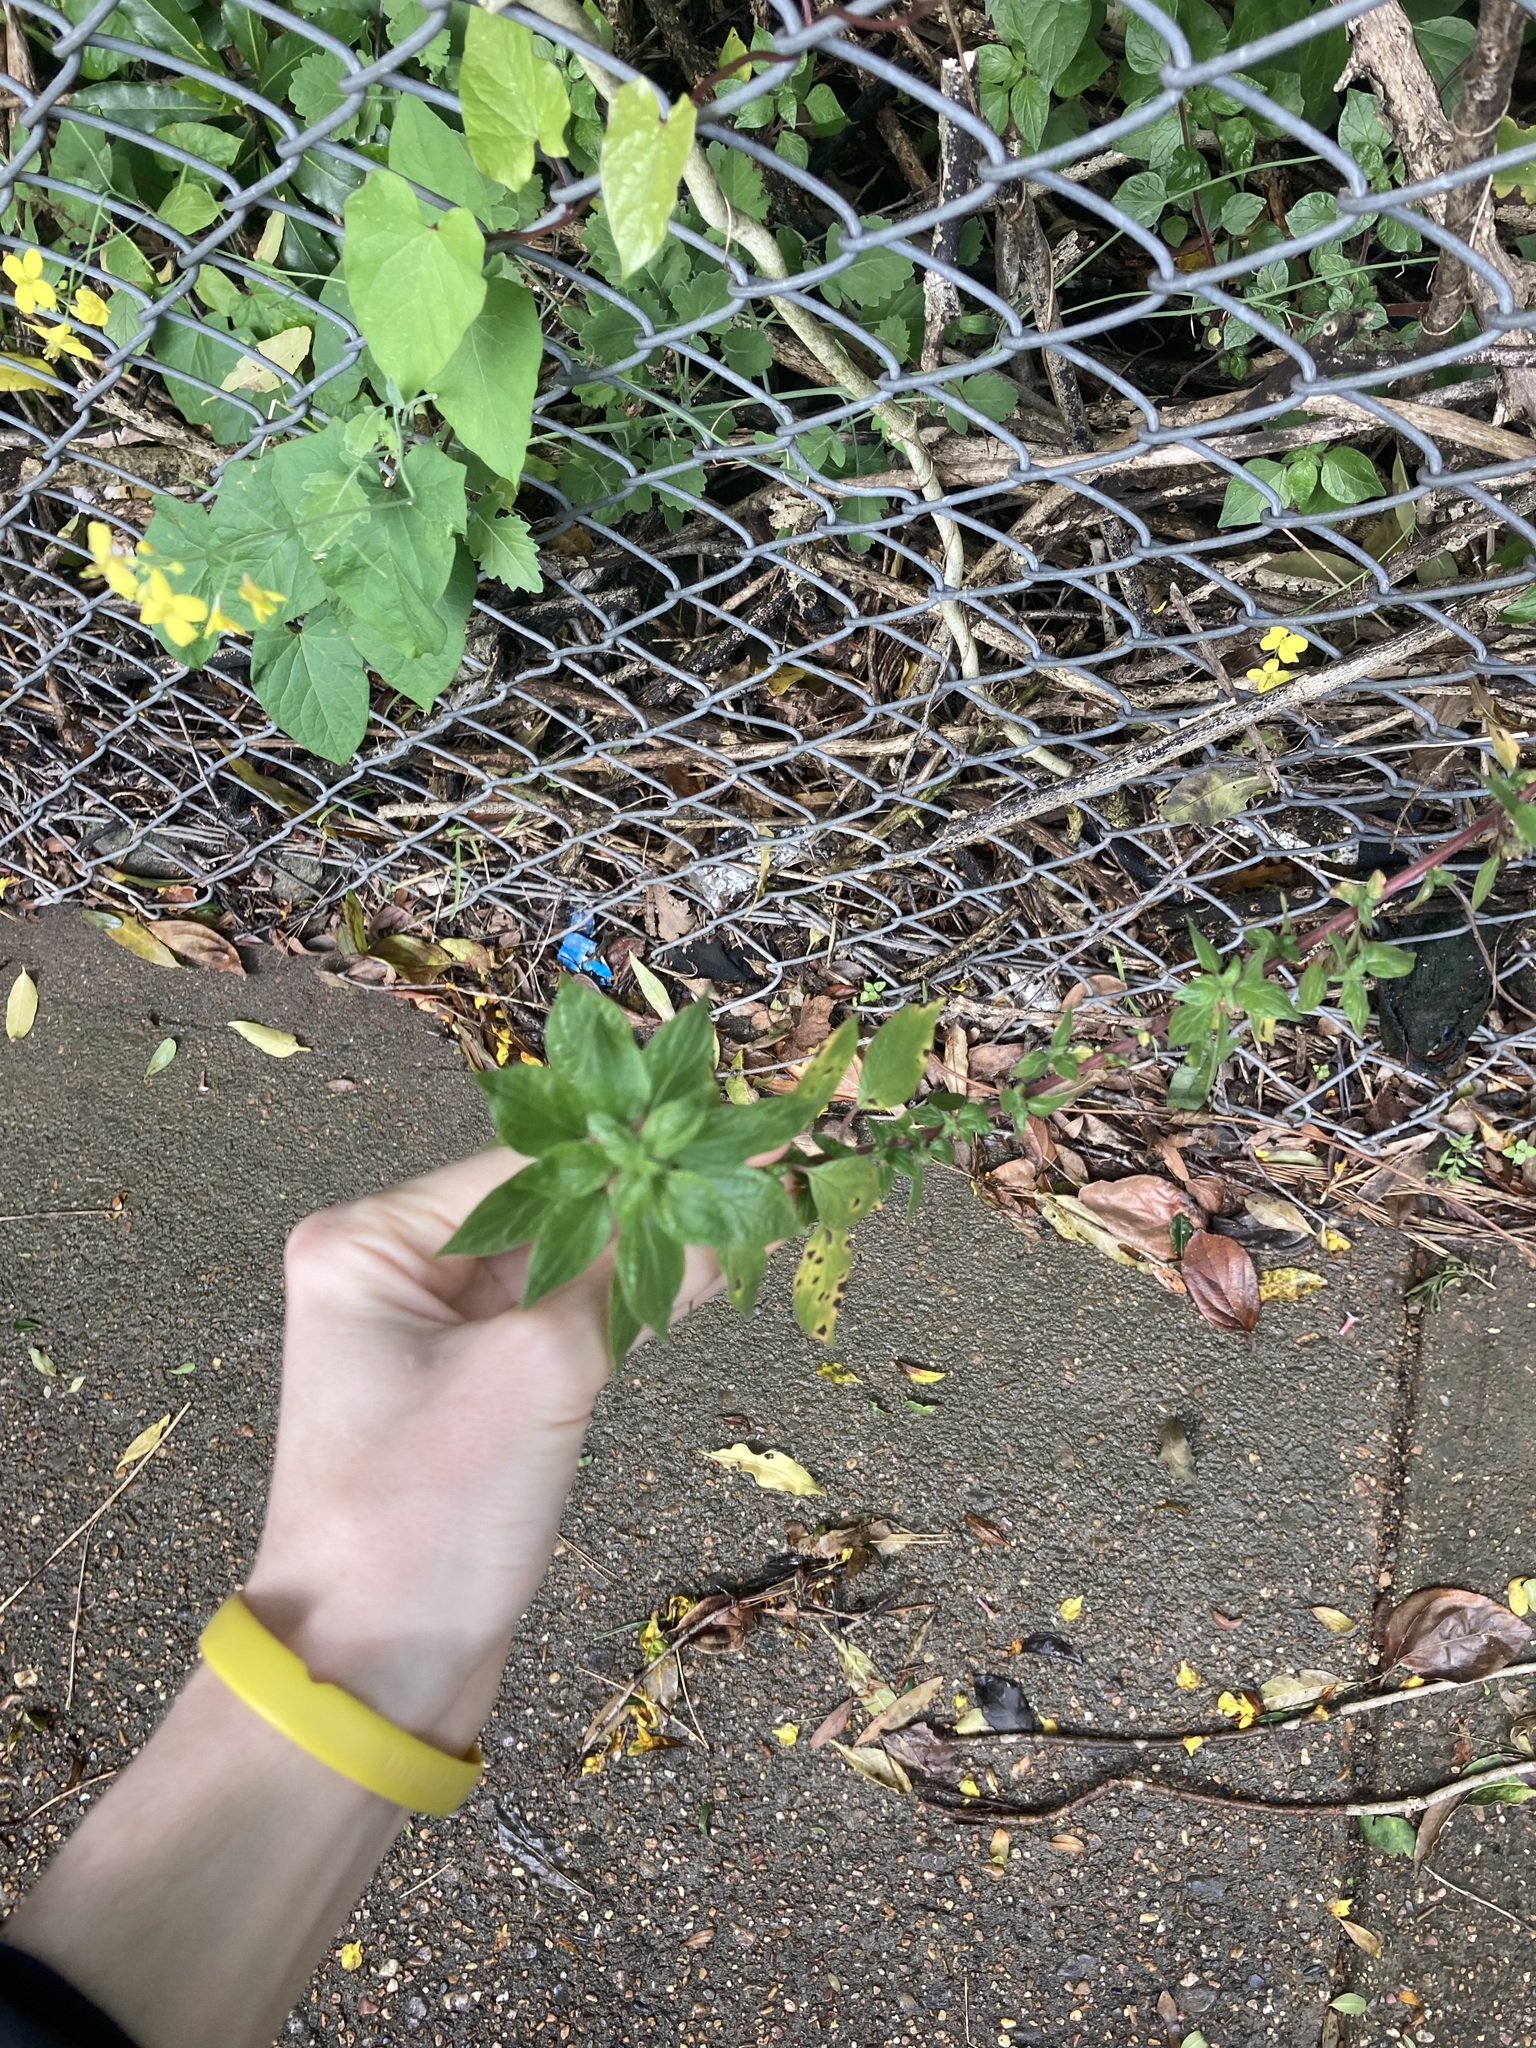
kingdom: Plantae
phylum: Tracheophyta
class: Magnoliopsida
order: Rosales
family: Urticaceae
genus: Parietaria
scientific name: Parietaria judaica
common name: Pellitory-of-the-wall
